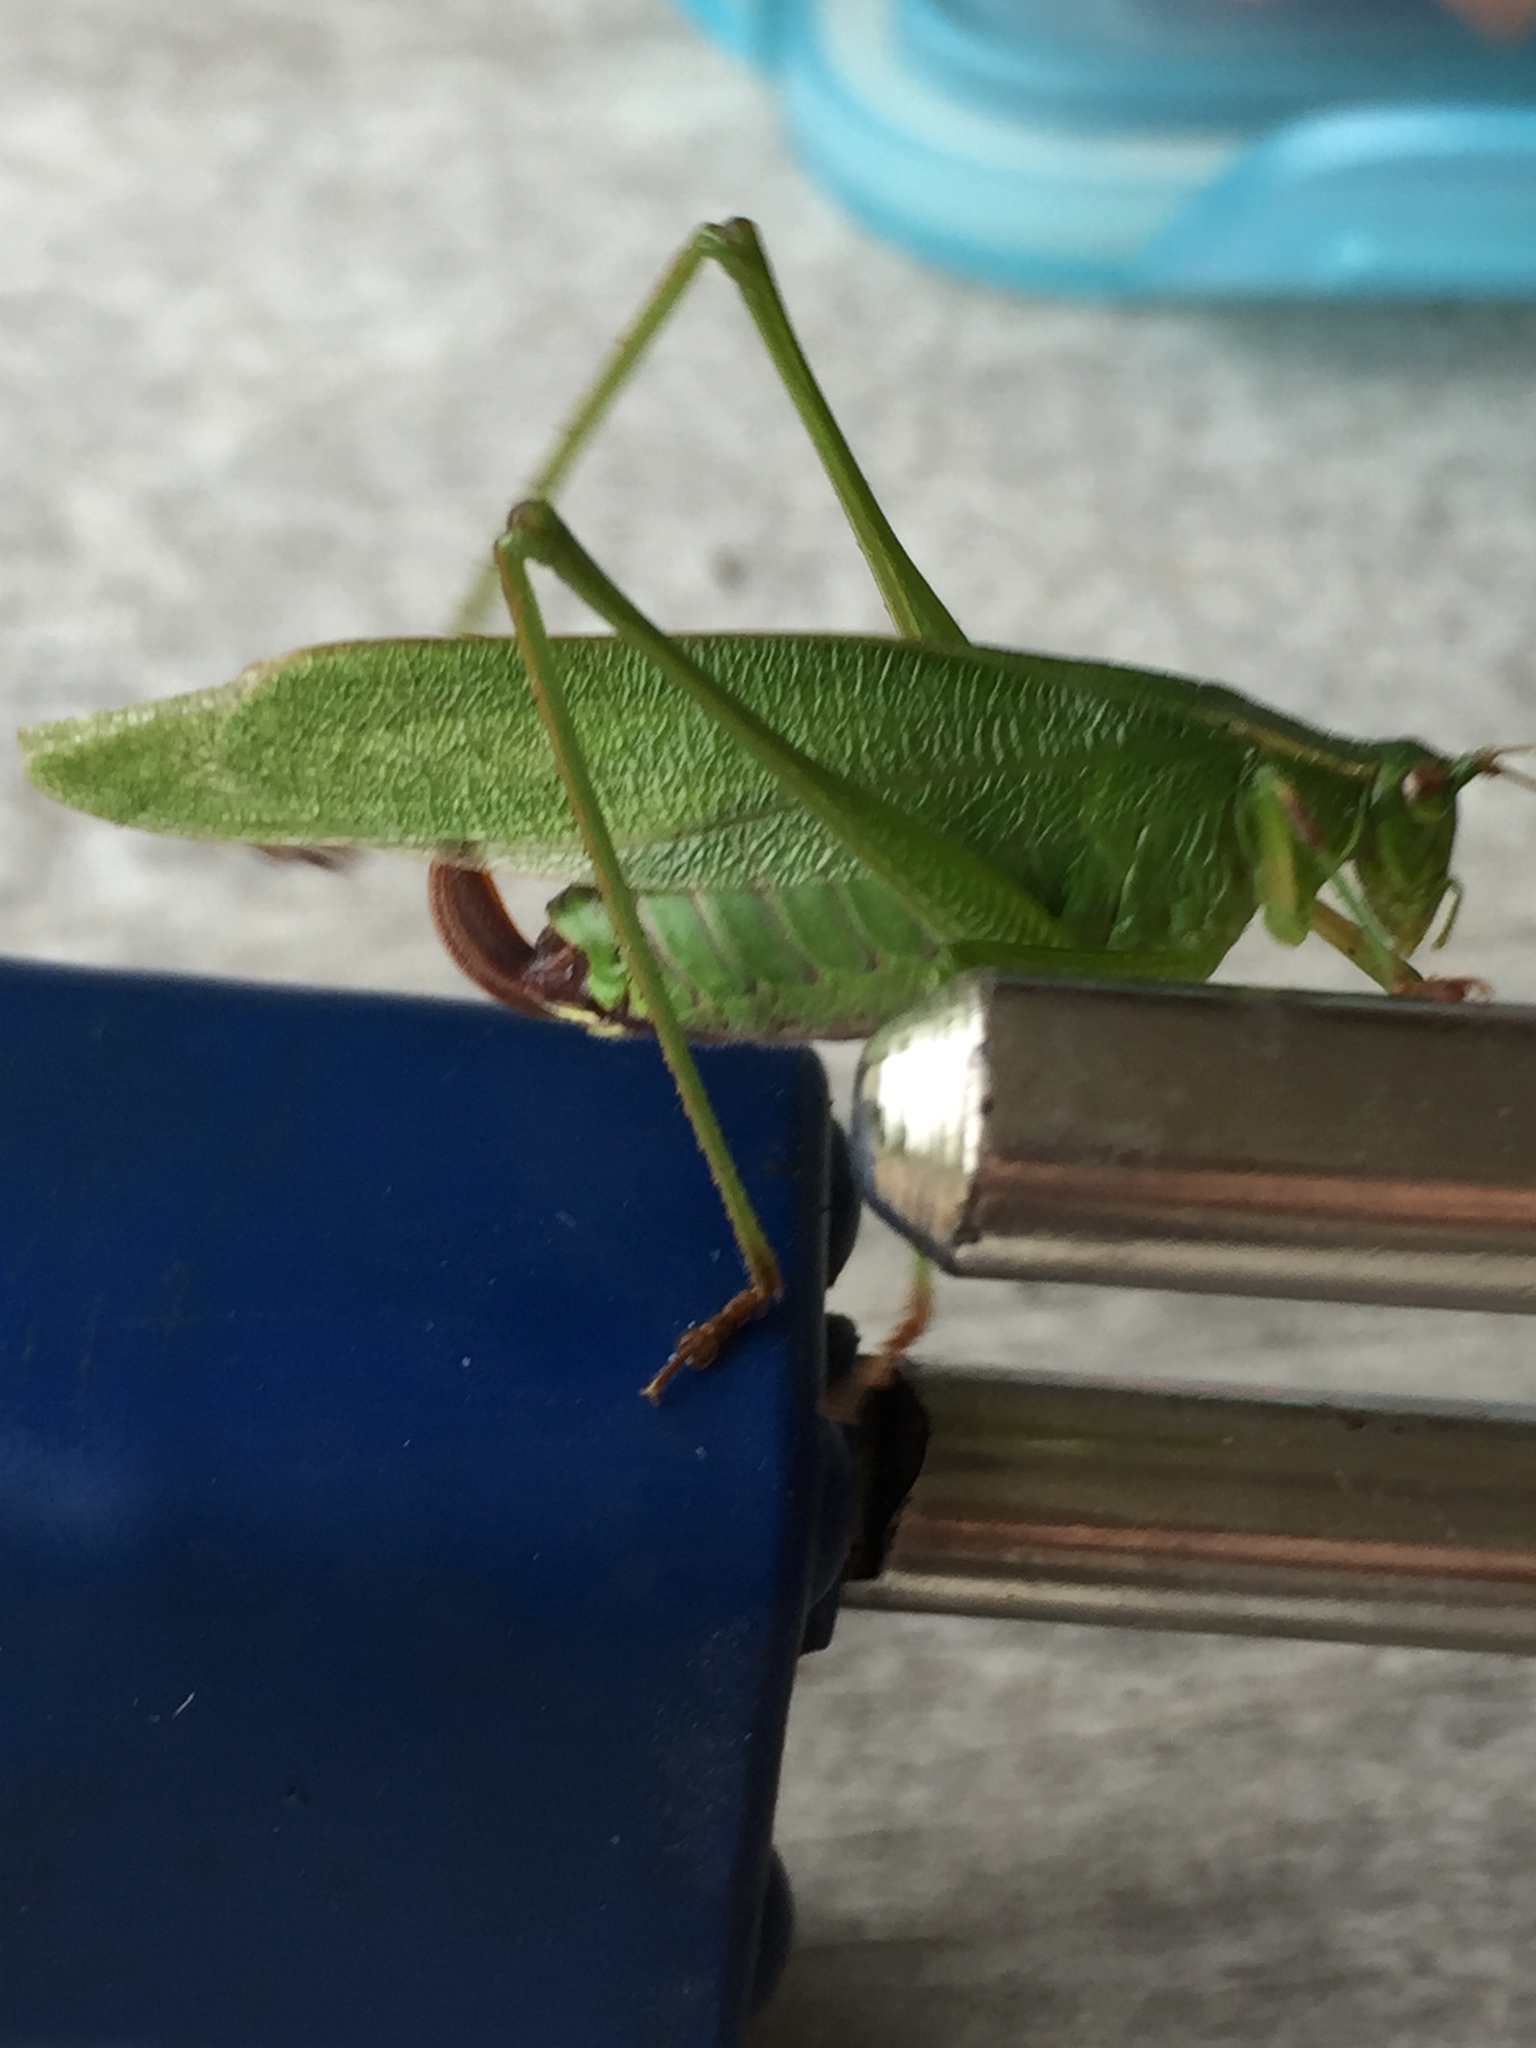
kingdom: Animalia
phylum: Arthropoda
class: Insecta
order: Orthoptera
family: Tettigoniidae
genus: Scudderia
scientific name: Scudderia furcata
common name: Fork-tailed bush katydid
